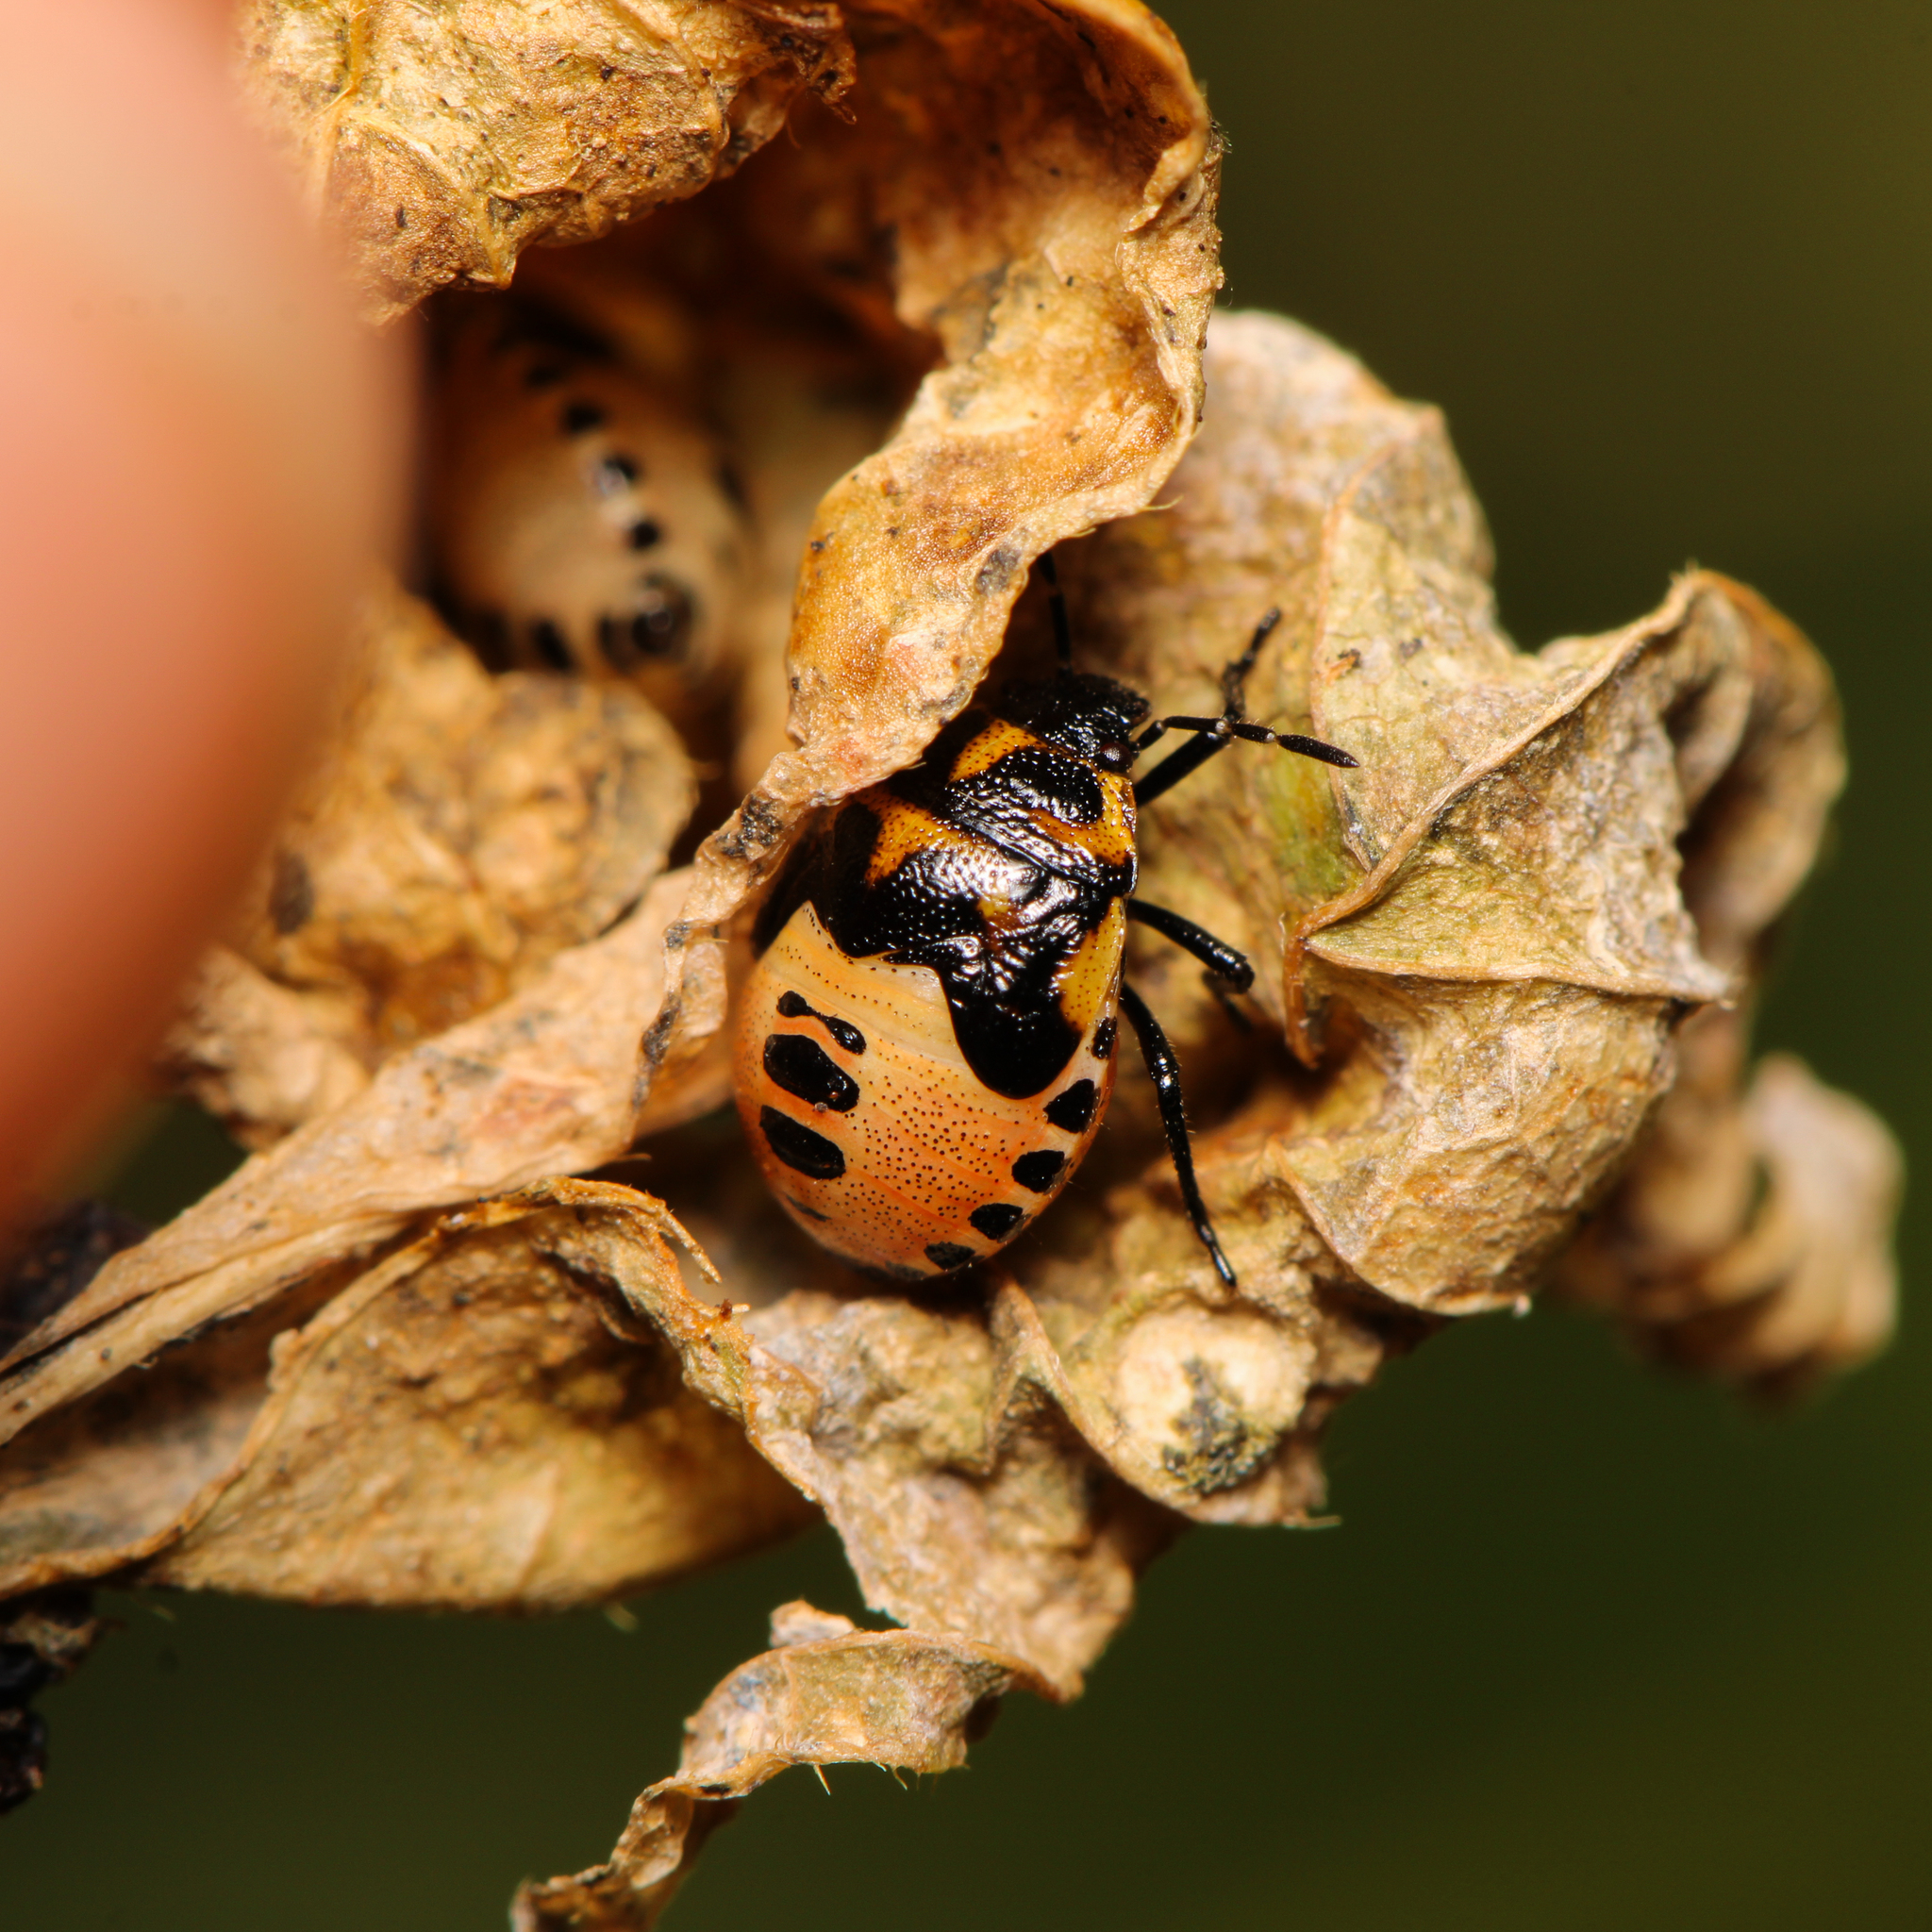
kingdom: Animalia
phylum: Arthropoda
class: Insecta
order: Hemiptera
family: Pentatomidae
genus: Cosmopepla
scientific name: Cosmopepla lintneriana
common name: Twice-stabbed stink bug
